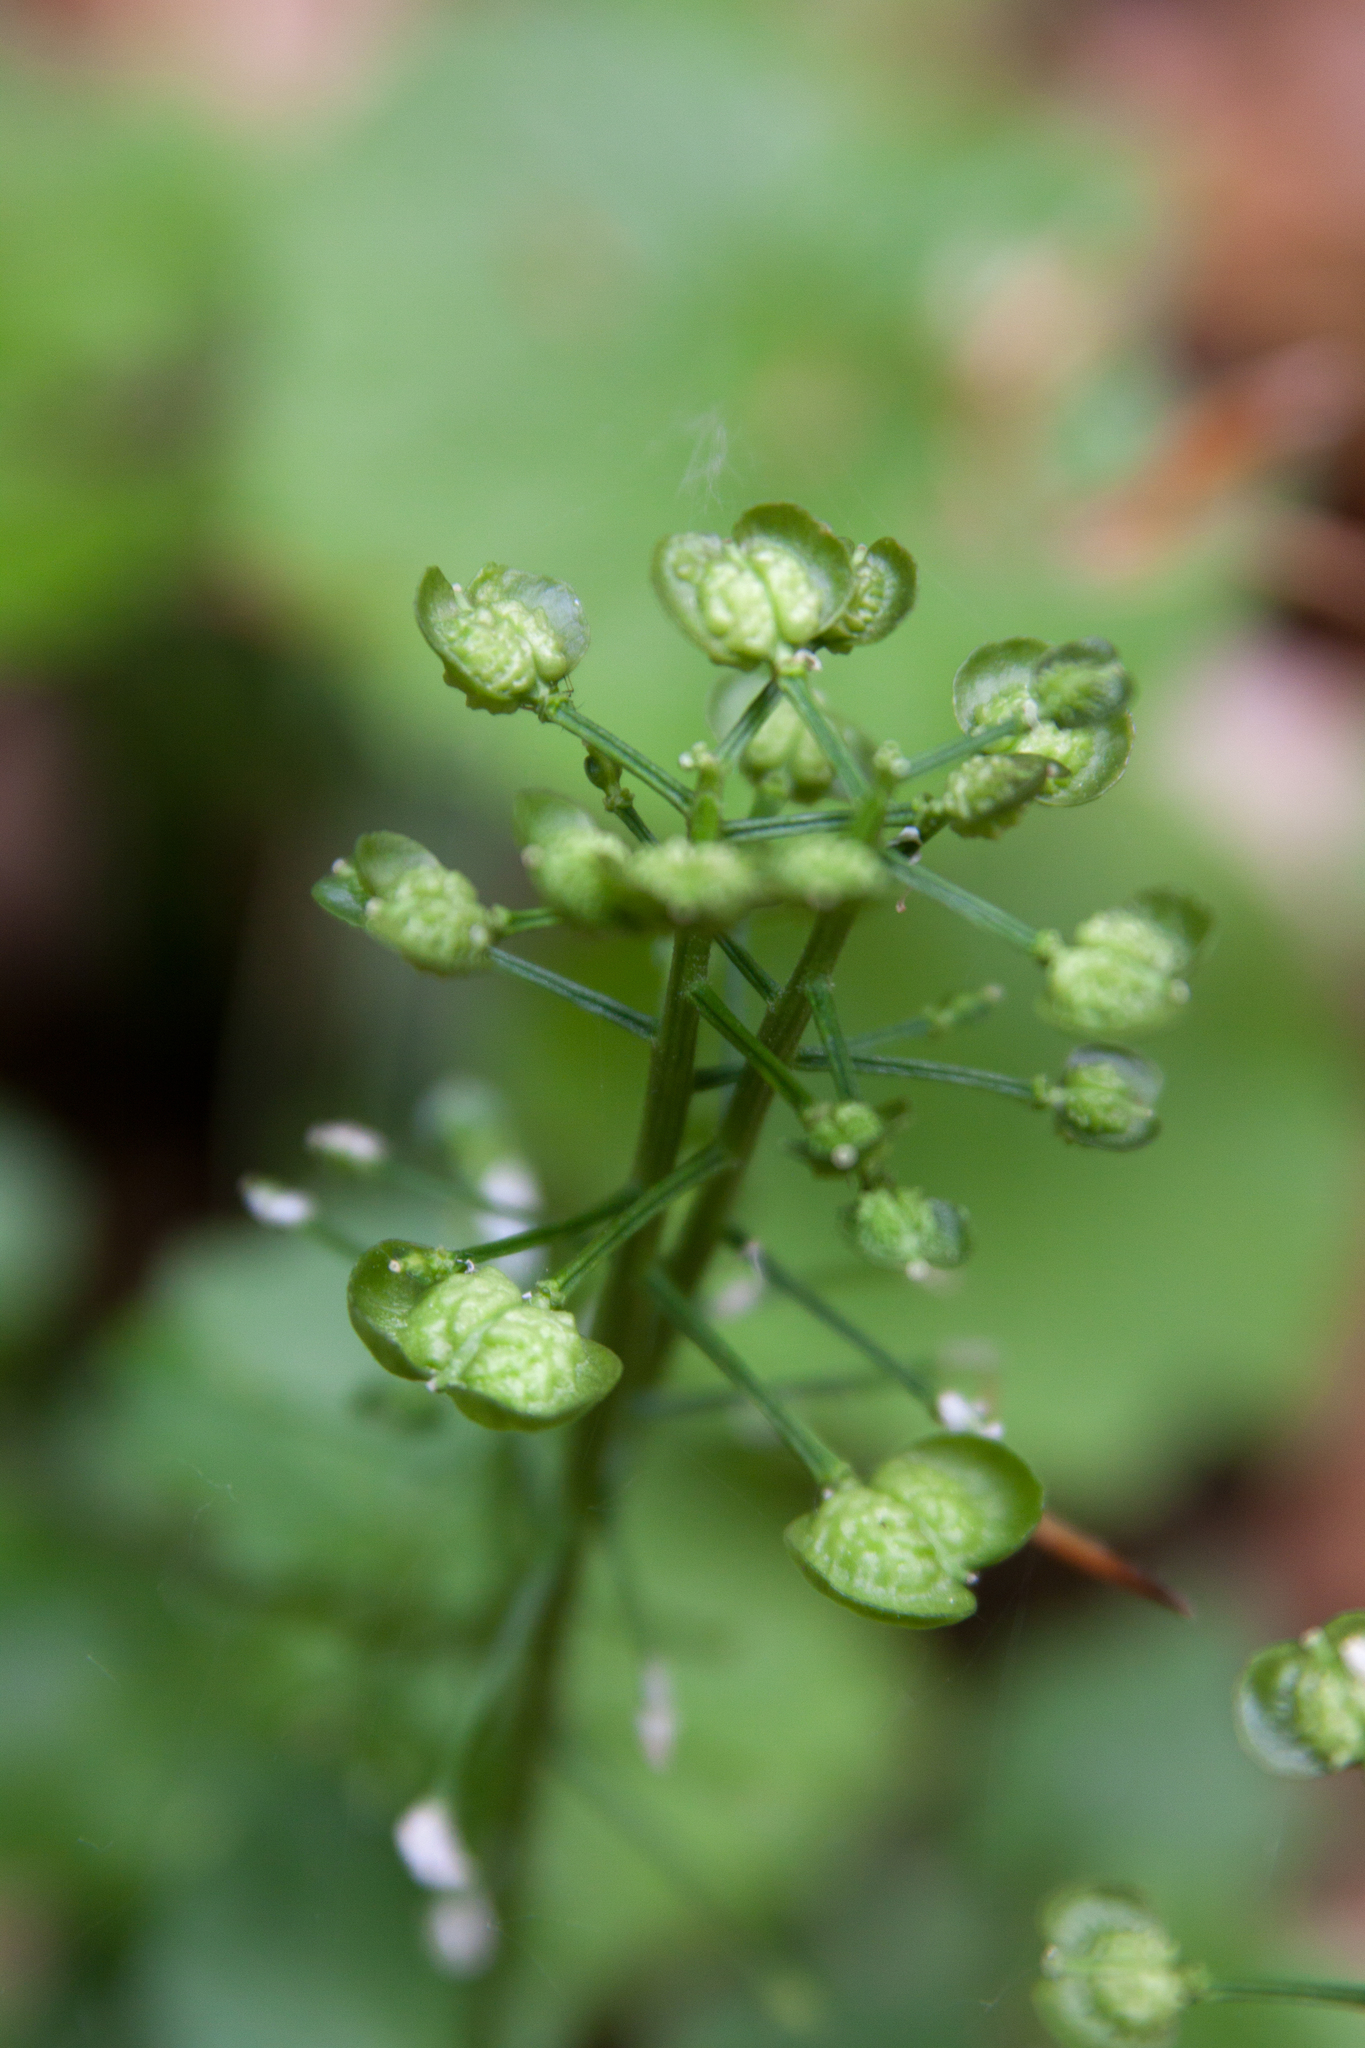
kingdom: Plantae
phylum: Tracheophyta
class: Magnoliopsida
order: Brassicales
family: Brassicaceae
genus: Pachyphragma
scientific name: Pachyphragma macrophyllum
